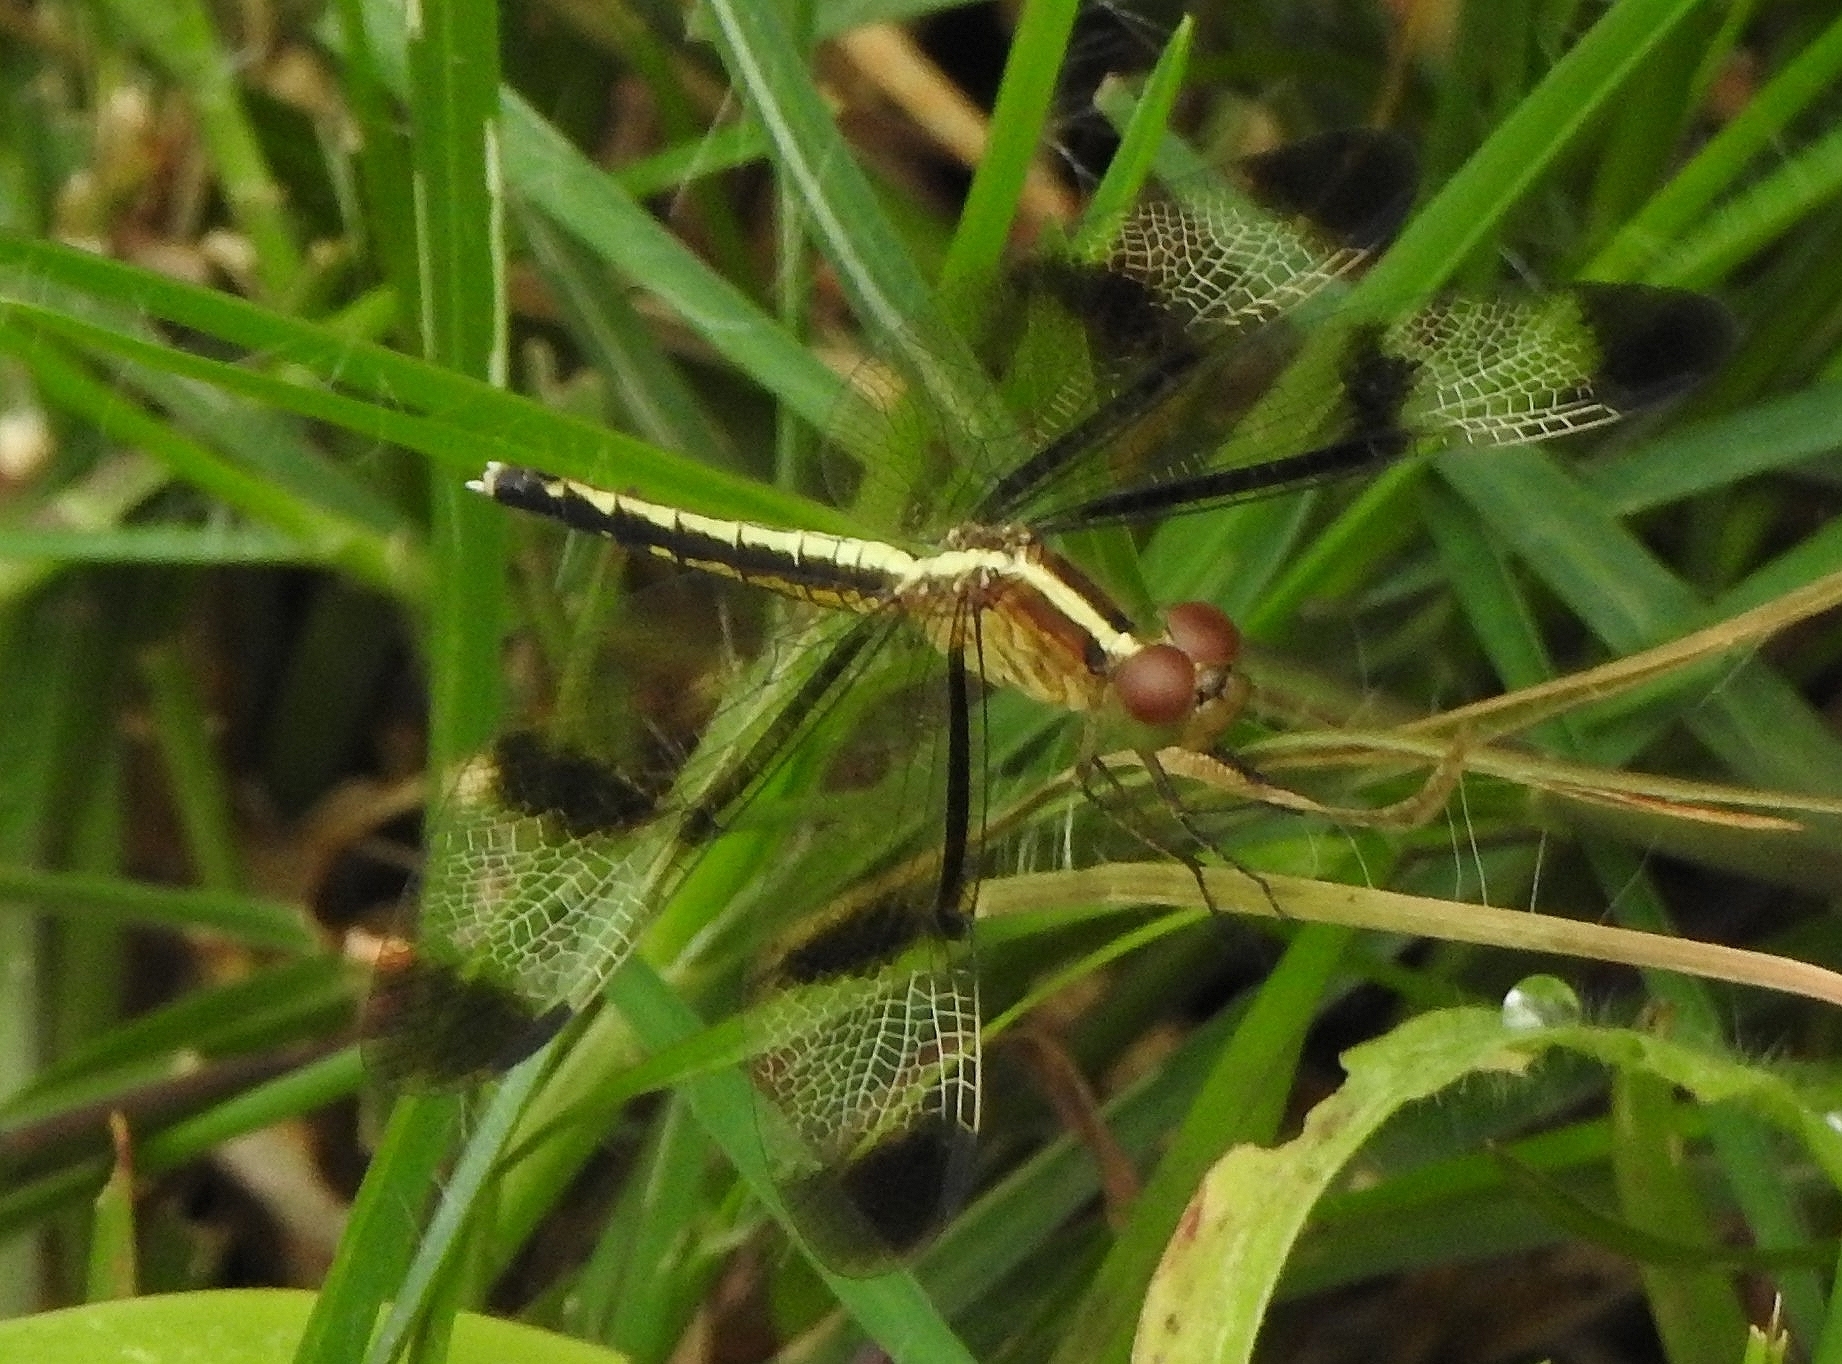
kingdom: Animalia
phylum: Arthropoda
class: Insecta
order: Odonata
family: Libellulidae
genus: Neurothemis
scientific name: Neurothemis tullia
